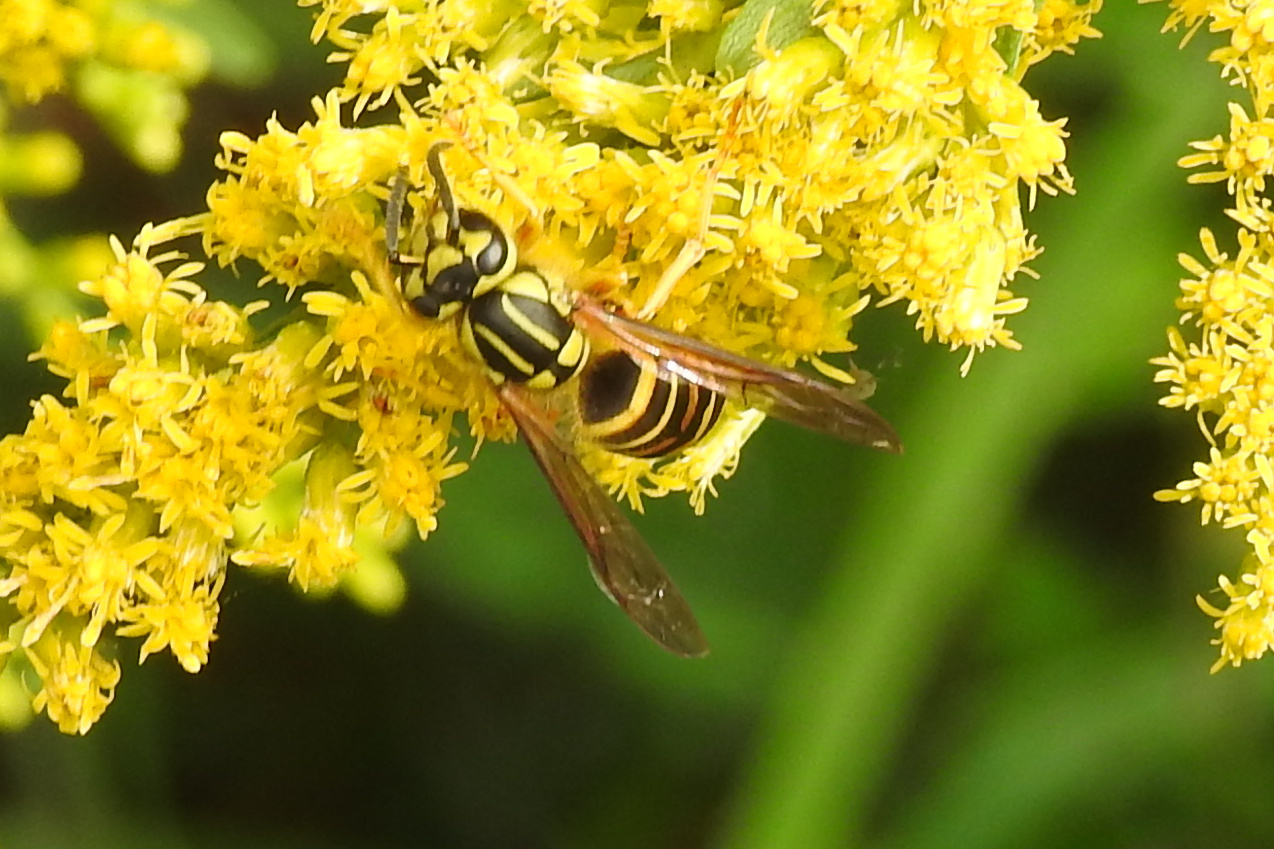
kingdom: Animalia
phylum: Arthropoda
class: Insecta
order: Hymenoptera
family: Vespidae
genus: Vespula
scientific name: Vespula squamosa
